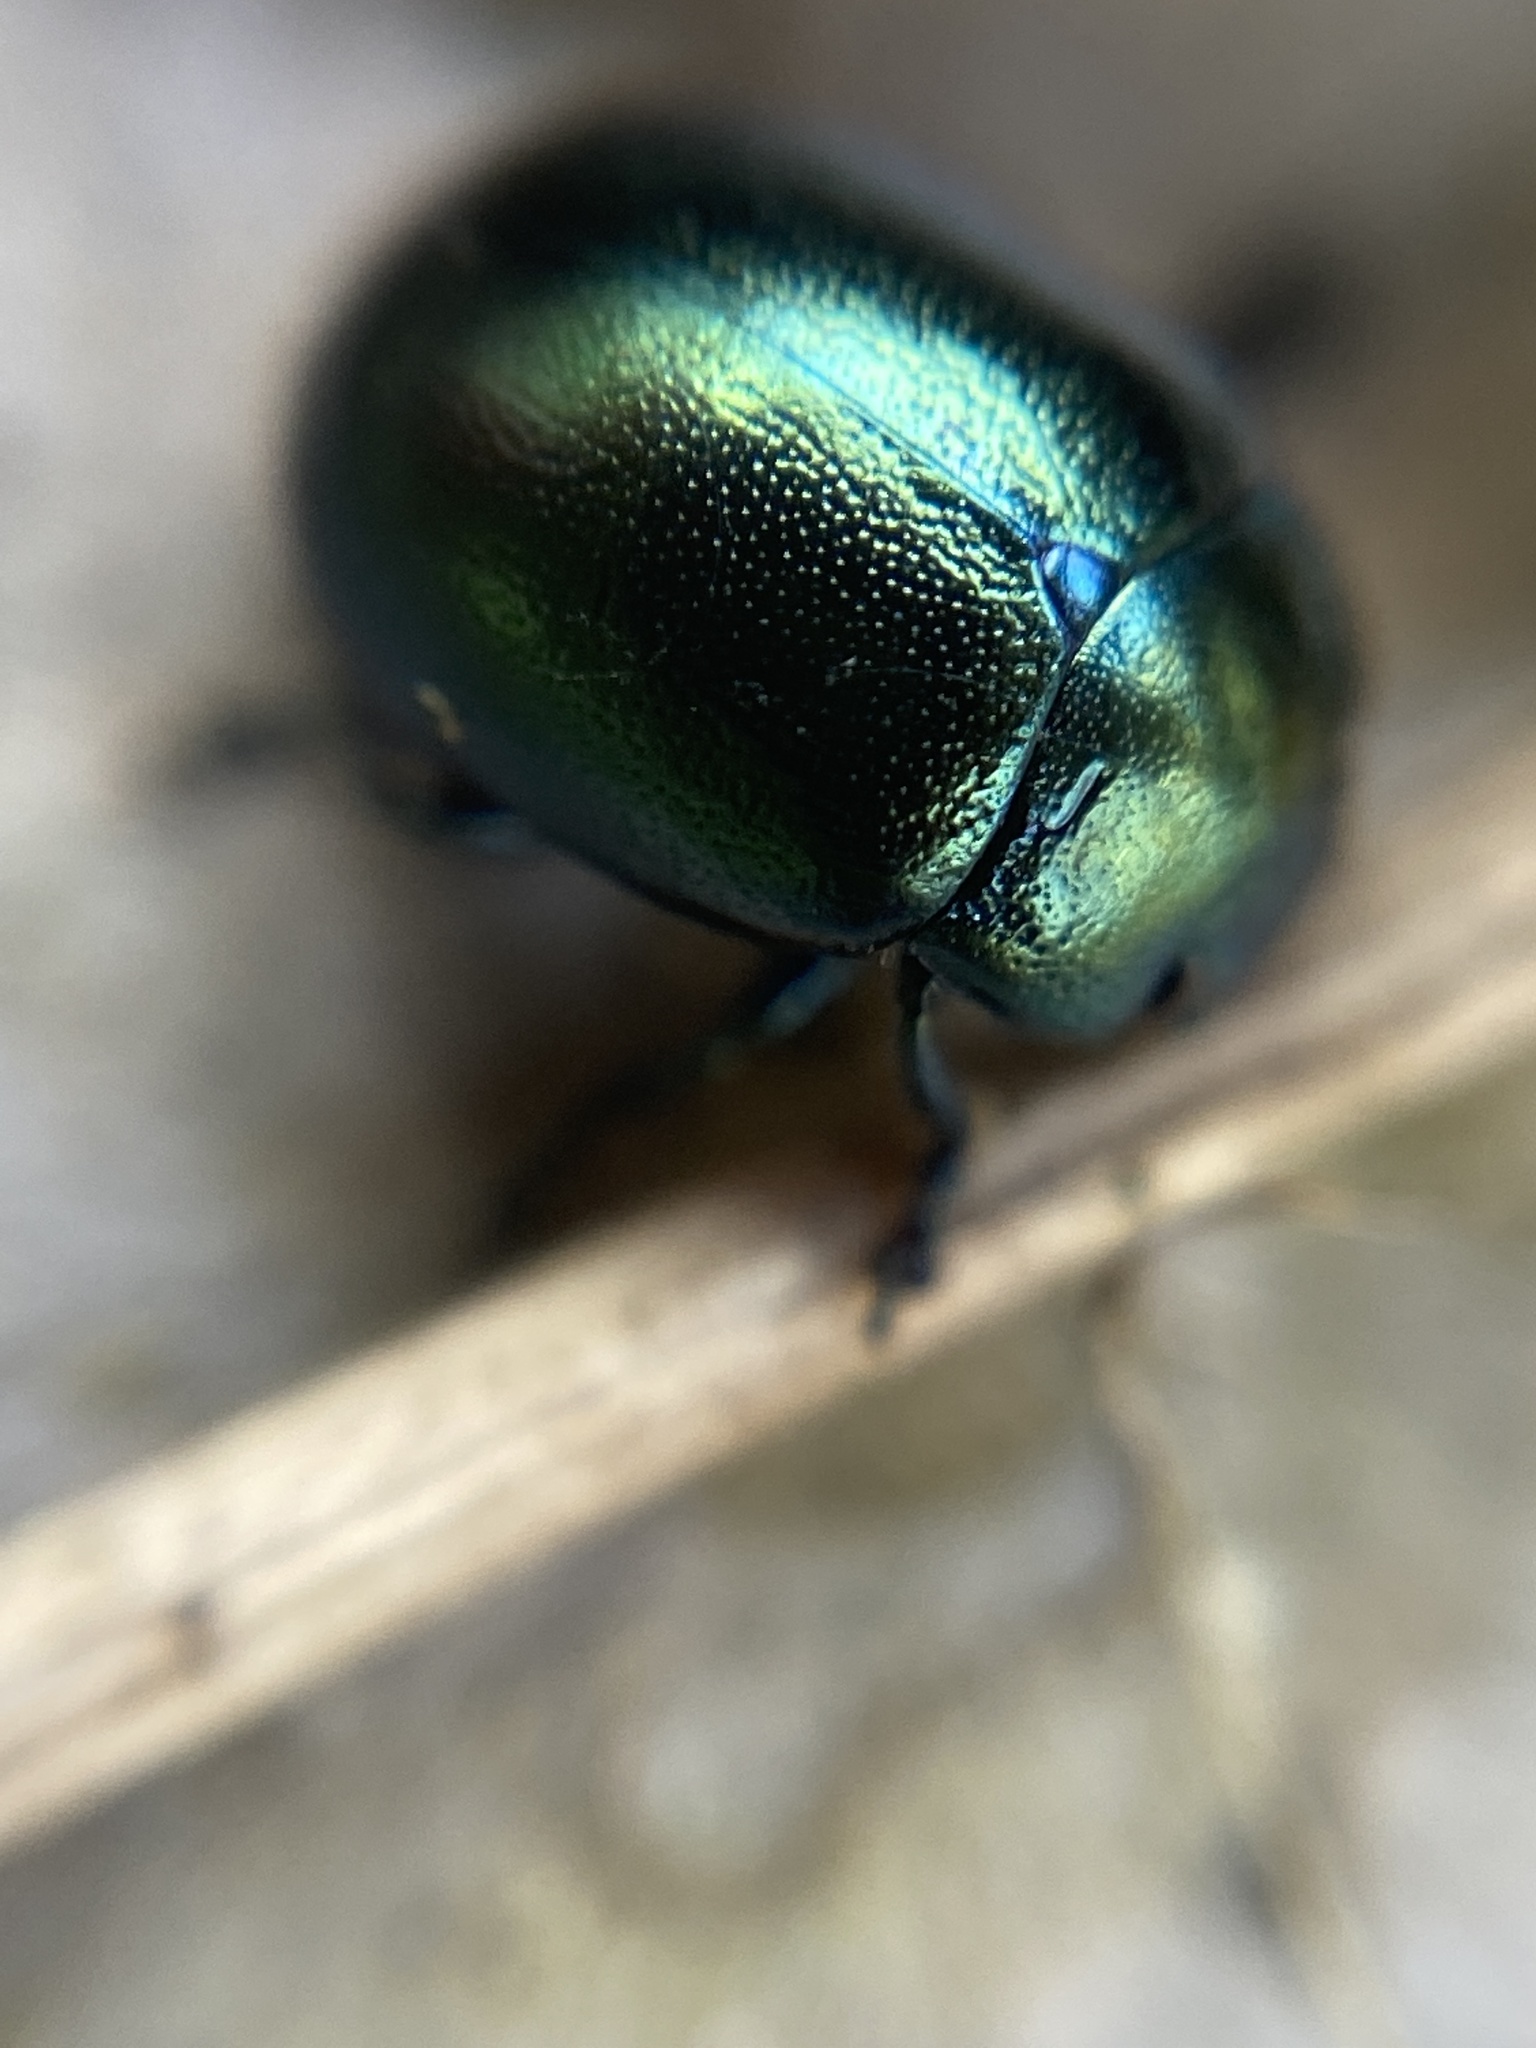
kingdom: Animalia
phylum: Arthropoda
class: Insecta
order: Coleoptera
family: Chrysomelidae
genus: Chrysolina
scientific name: Chrysolina varians
